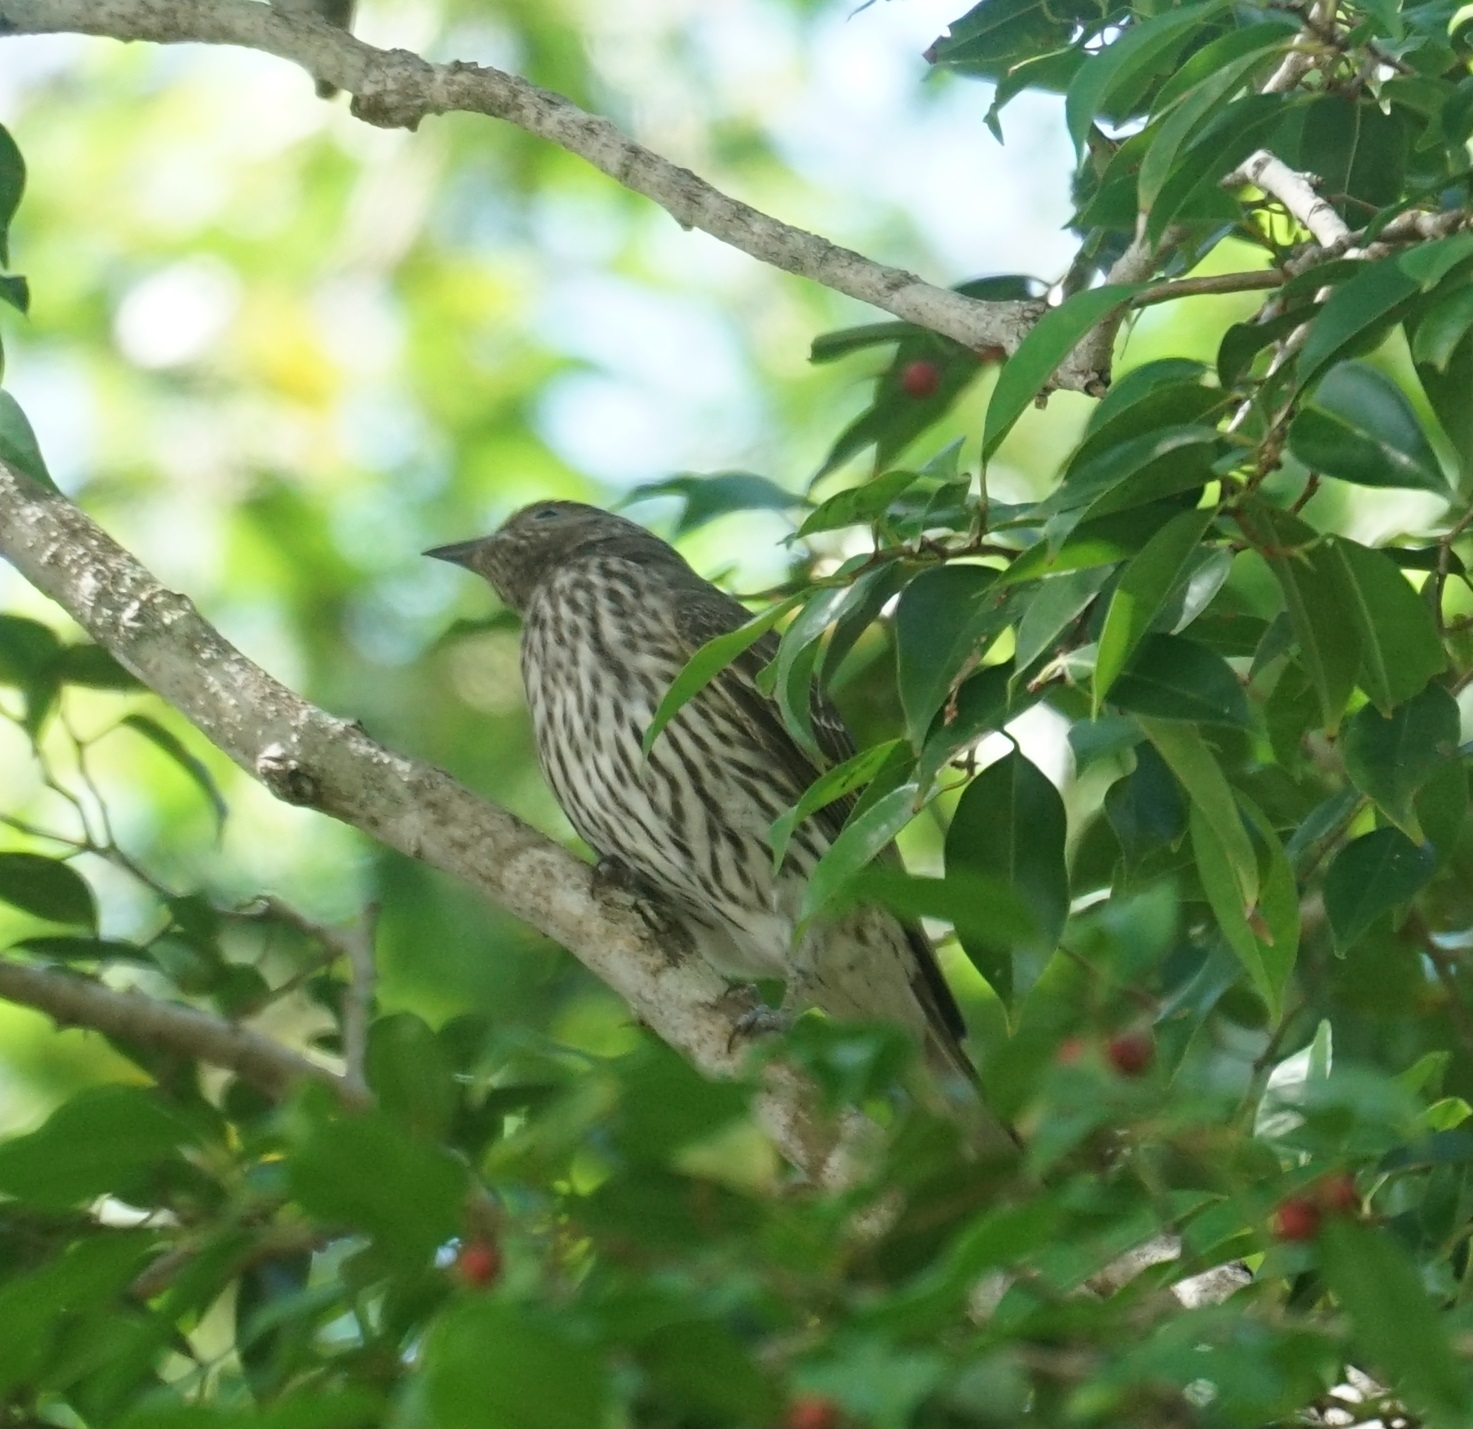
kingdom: Animalia
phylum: Chordata
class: Aves
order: Passeriformes
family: Oriolidae
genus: Sphecotheres
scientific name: Sphecotheres vieilloti
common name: Australasian figbird
